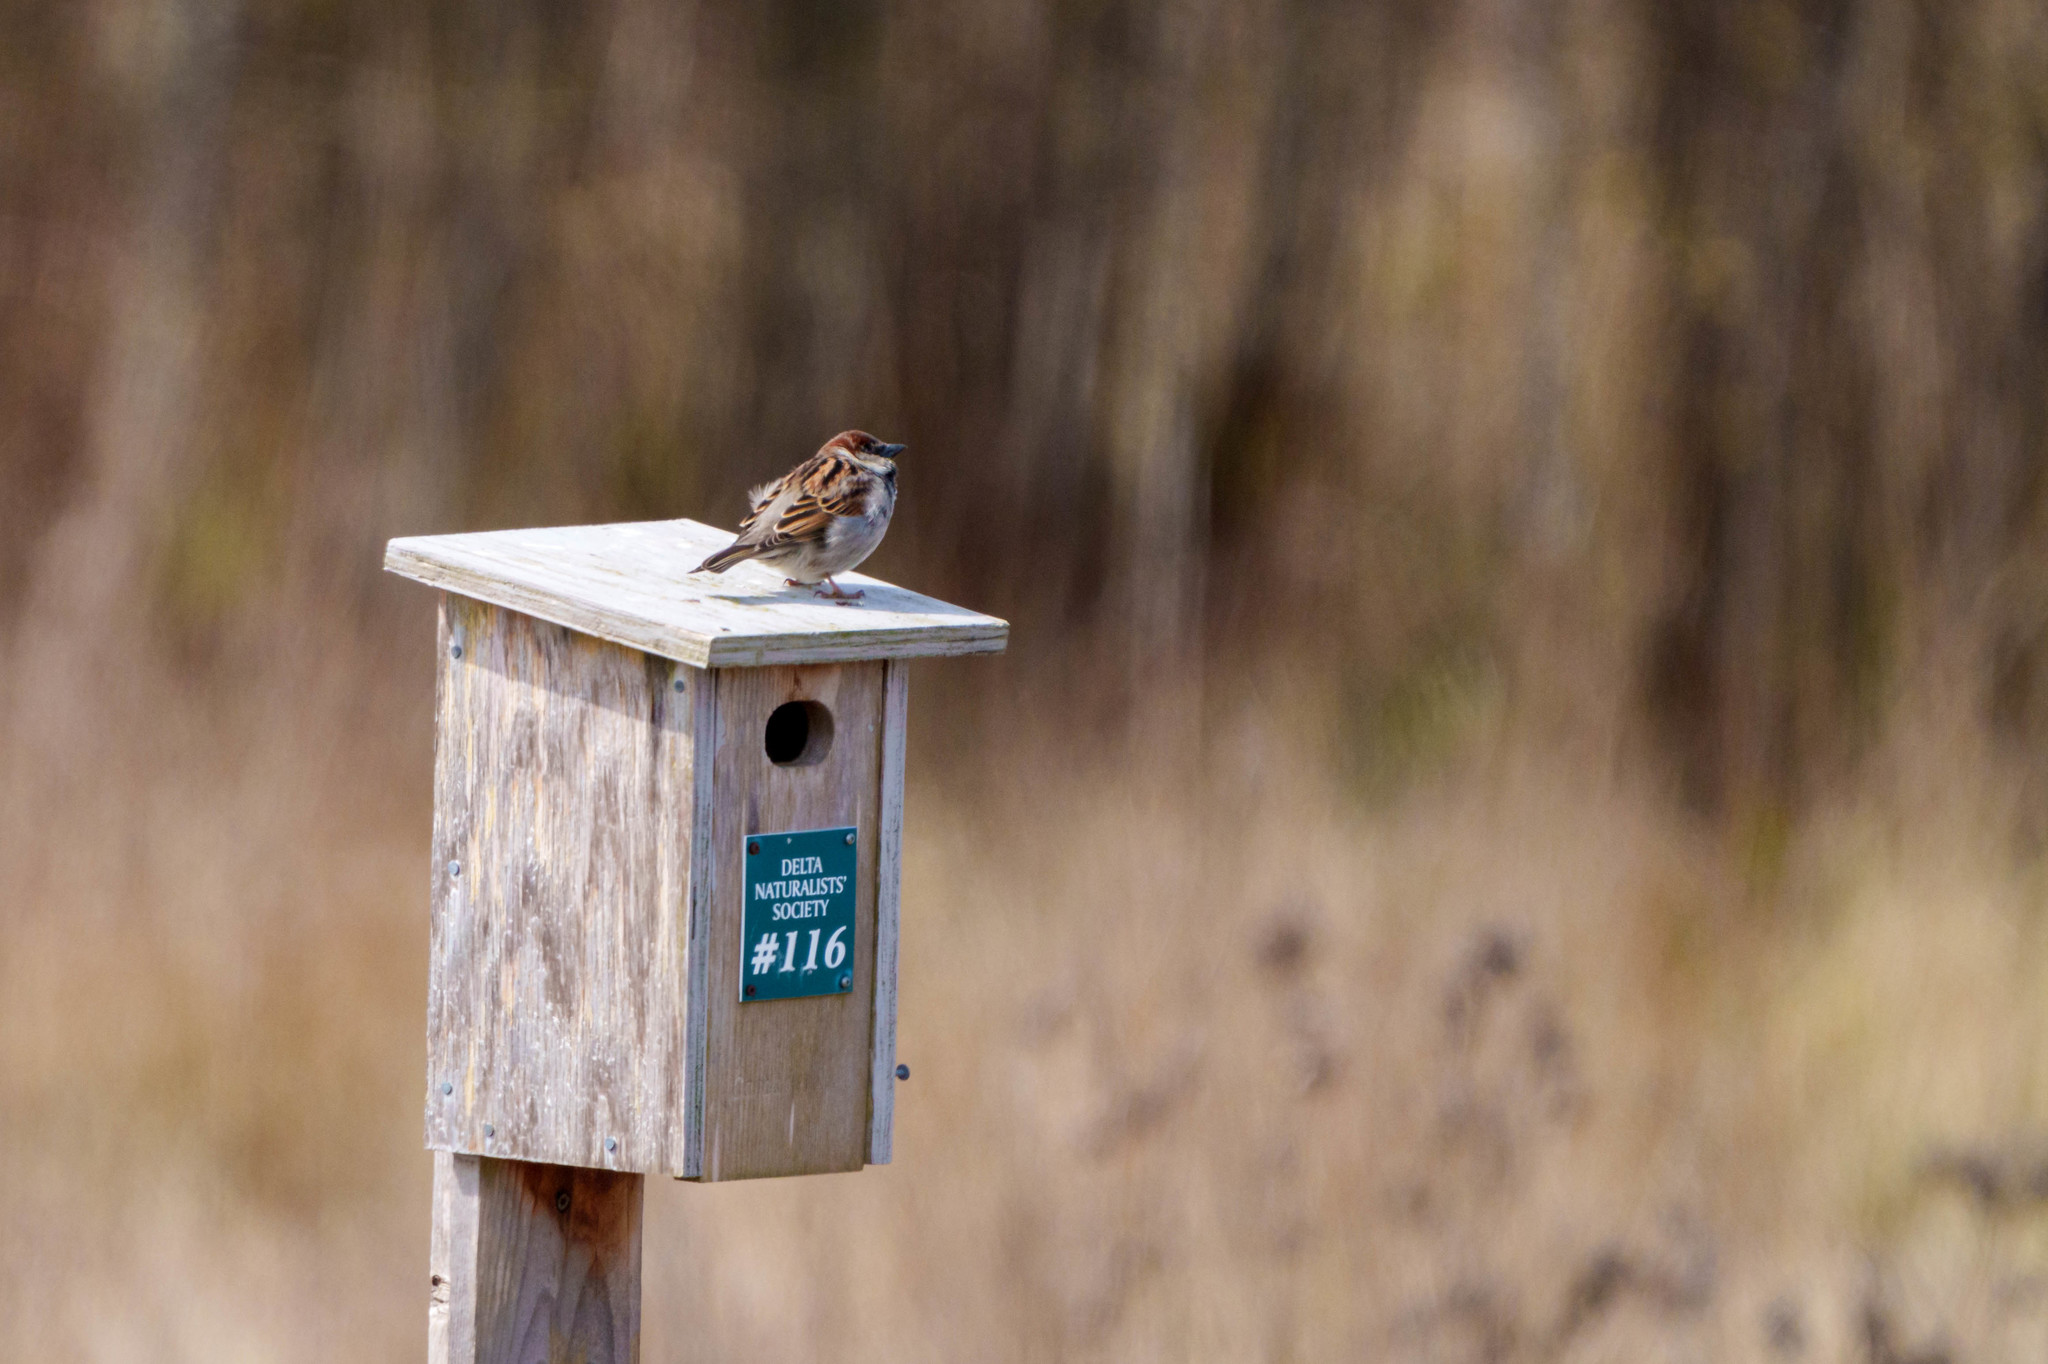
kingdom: Animalia
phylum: Chordata
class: Aves
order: Passeriformes
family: Passeridae
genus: Passer
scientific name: Passer domesticus
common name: House sparrow
